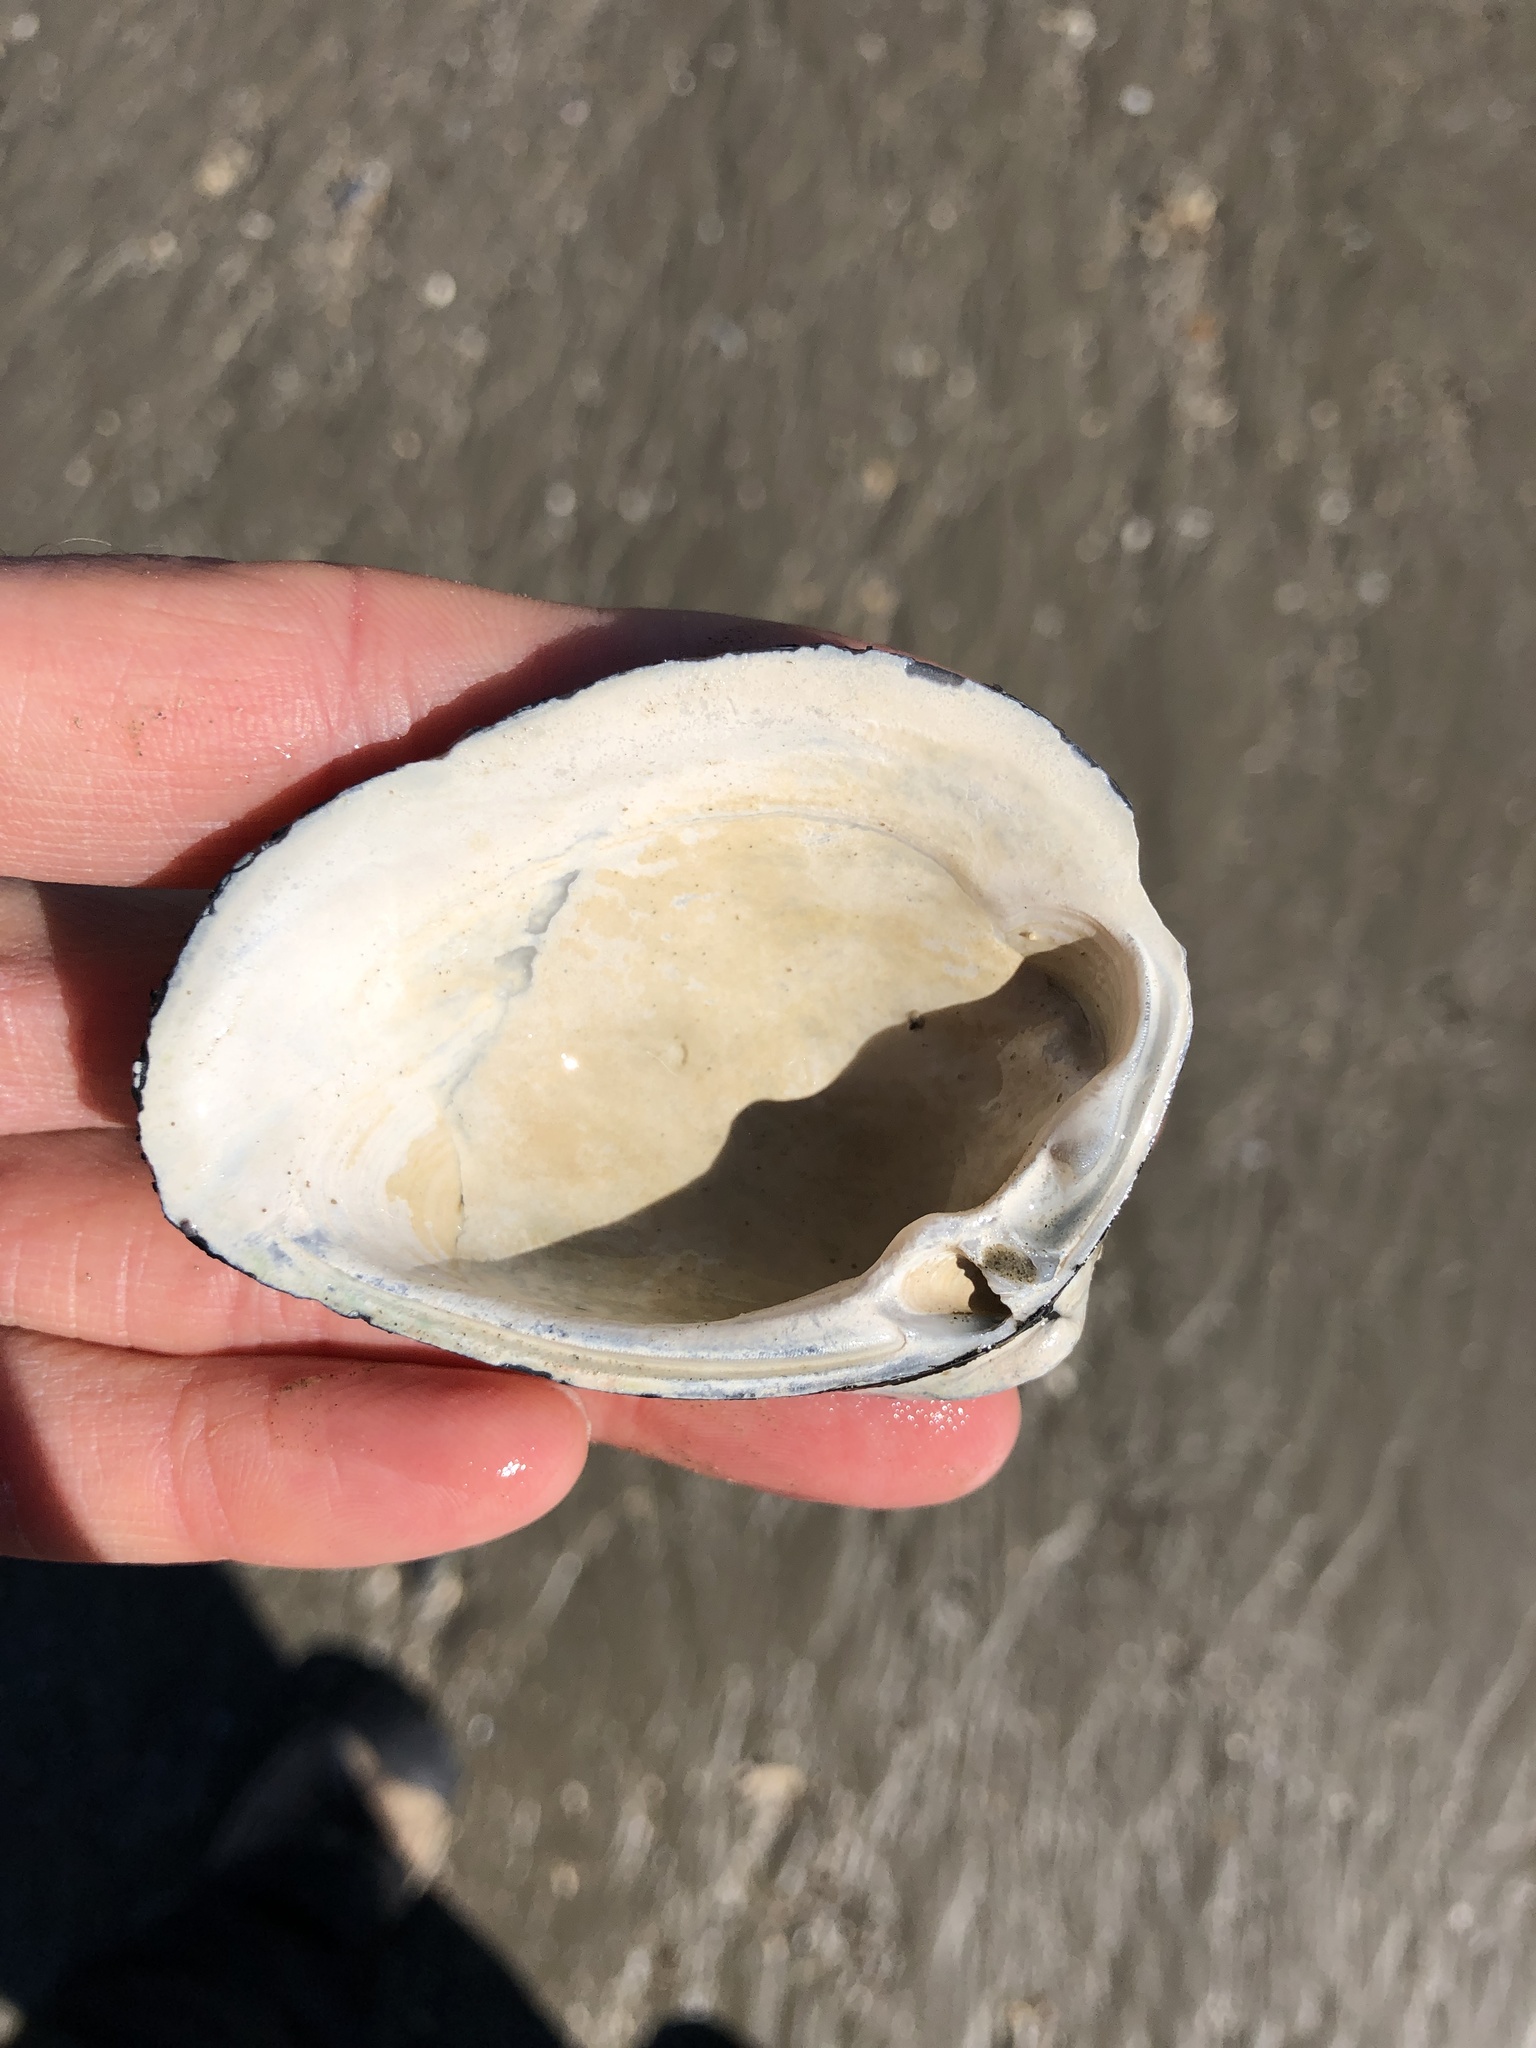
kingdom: Animalia
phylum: Mollusca
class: Bivalvia
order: Venerida
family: Mactridae
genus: Rangia
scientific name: Rangia cuneata
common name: Atlantic rangia
